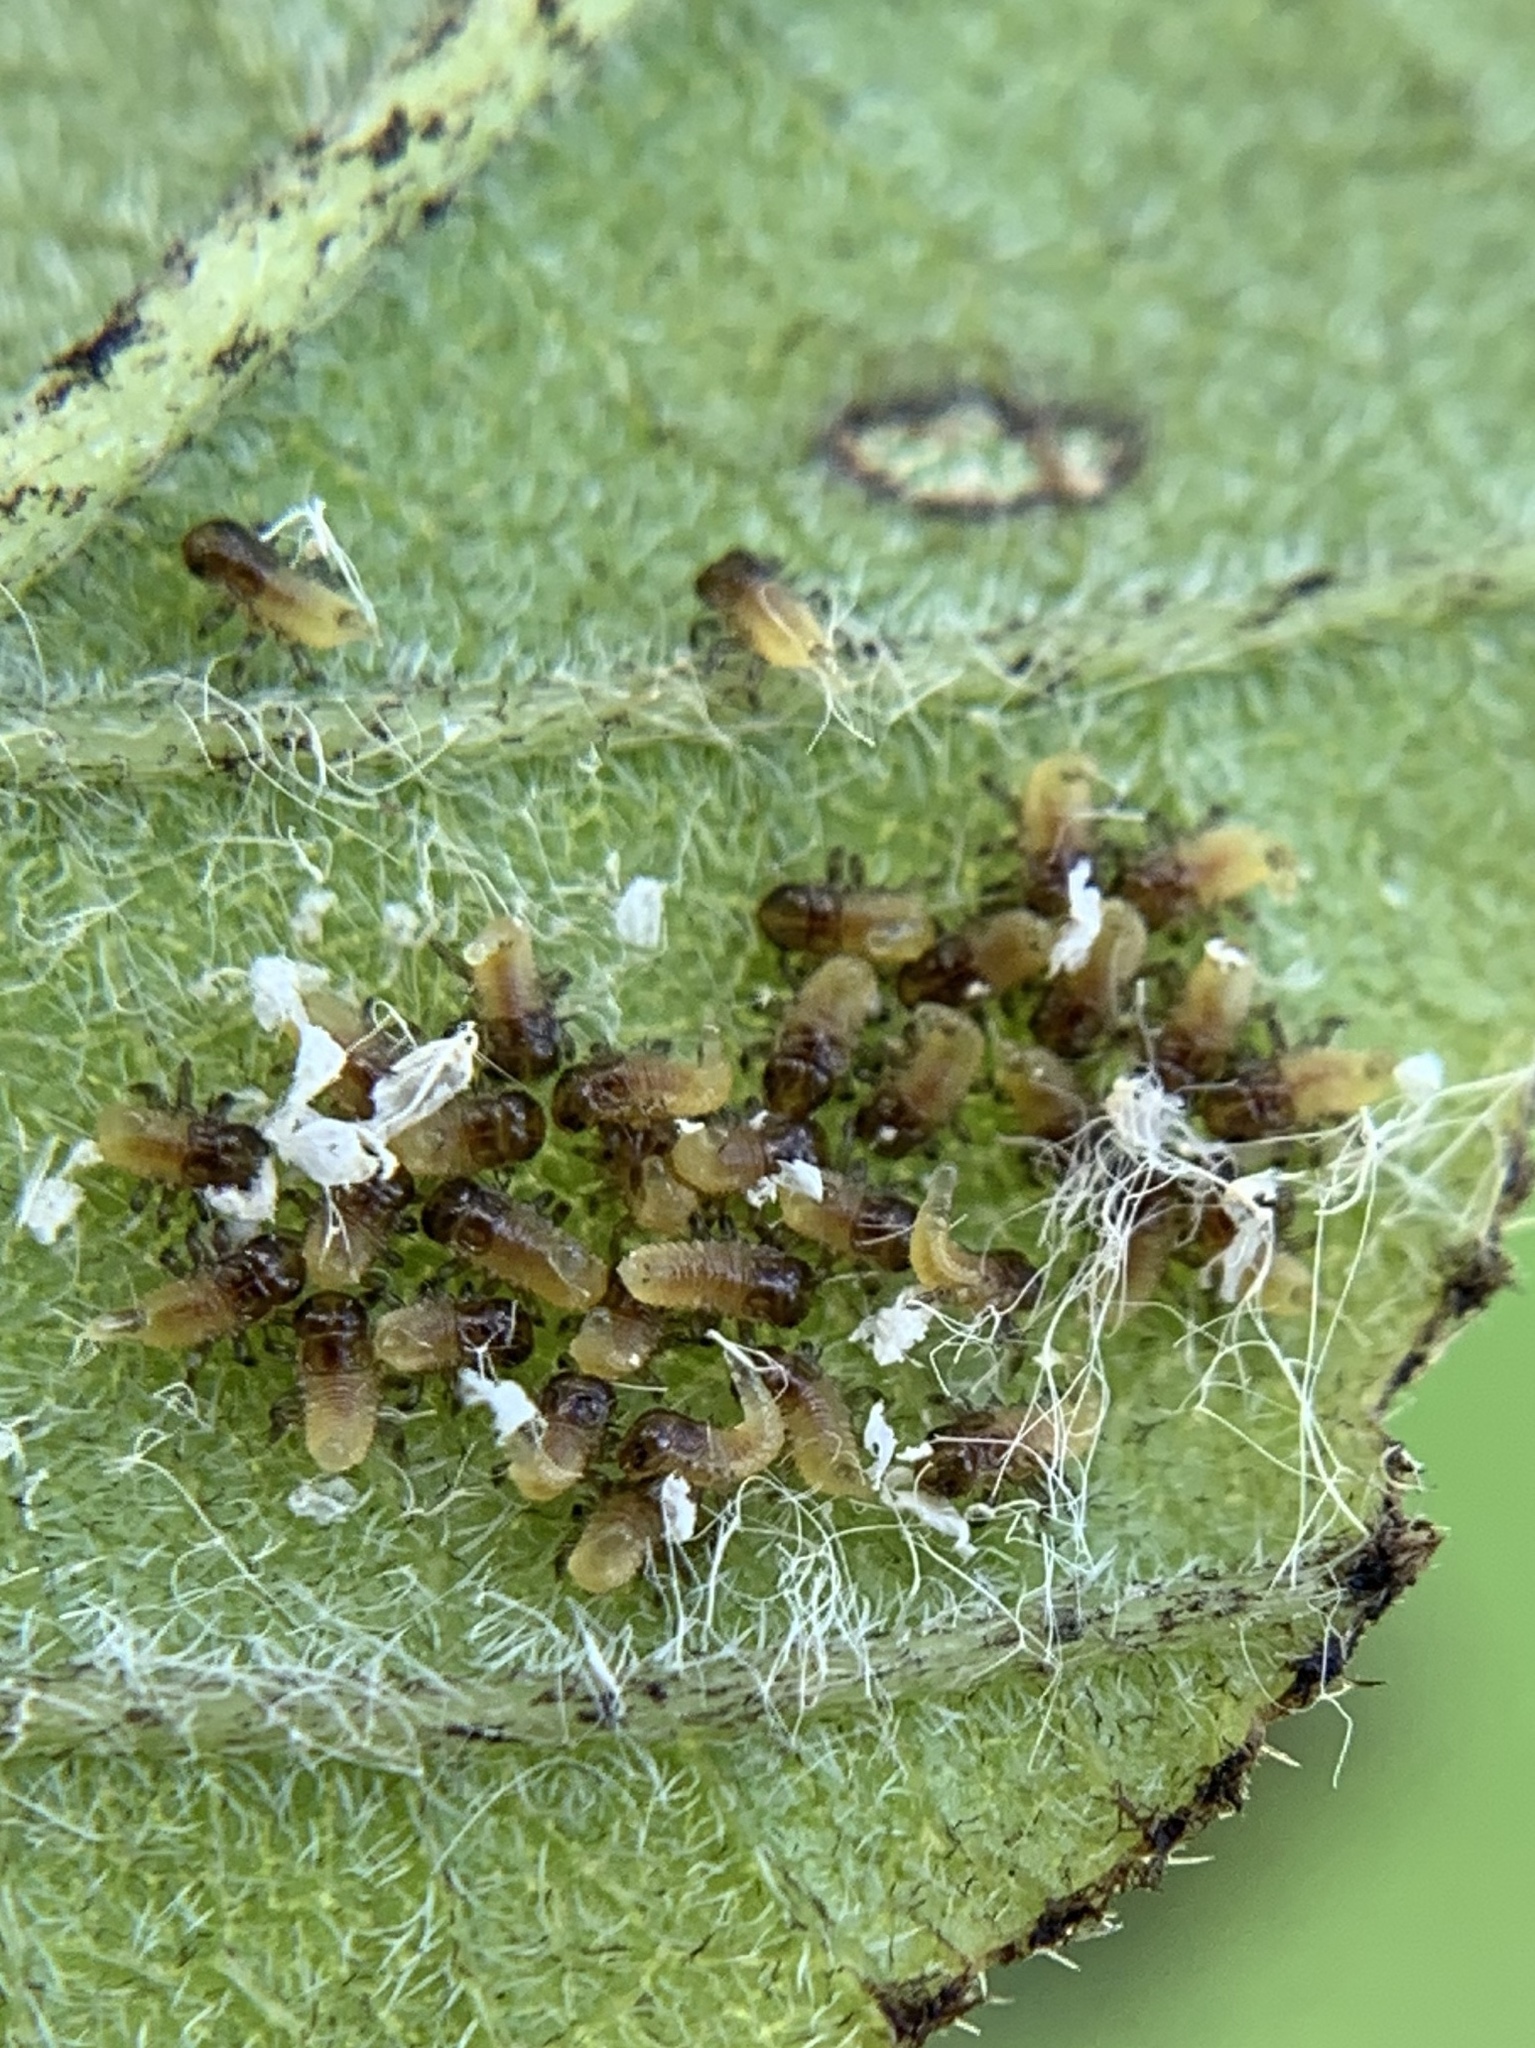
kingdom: Animalia
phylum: Arthropoda
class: Insecta
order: Coleoptera
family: Chrysomelidae
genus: Eurypepla
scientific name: Eurypepla calochroma
